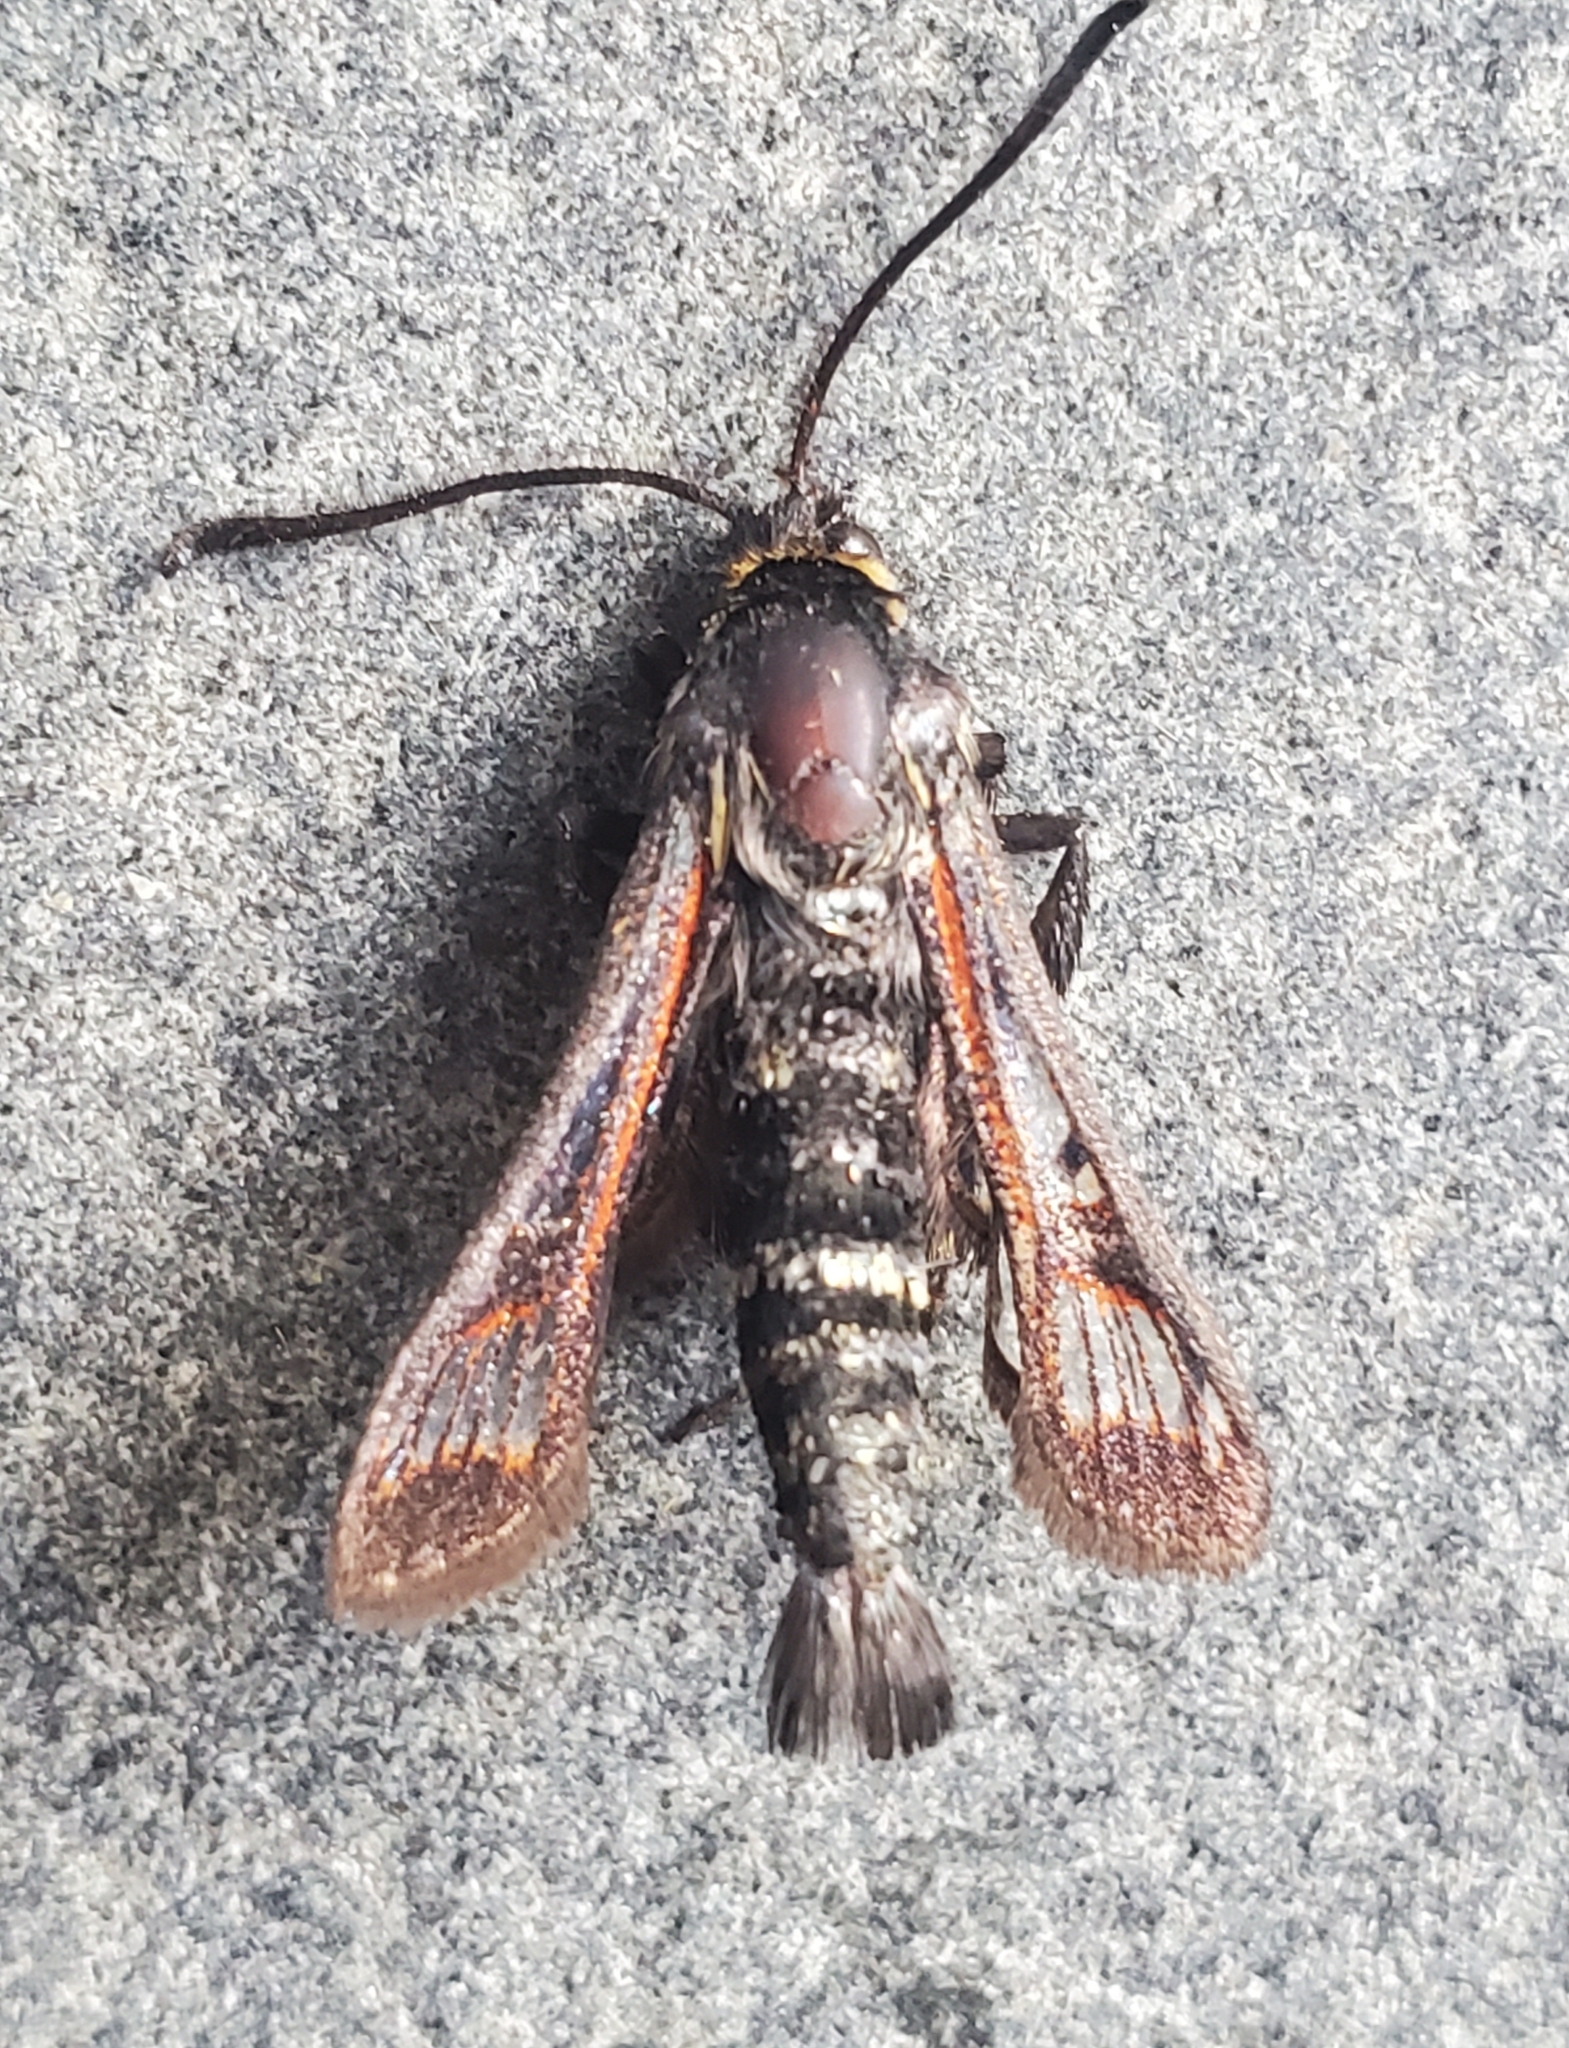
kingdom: Animalia
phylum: Arthropoda
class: Insecta
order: Lepidoptera
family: Sesiidae
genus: Albuna
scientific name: Albuna pyramidalis
